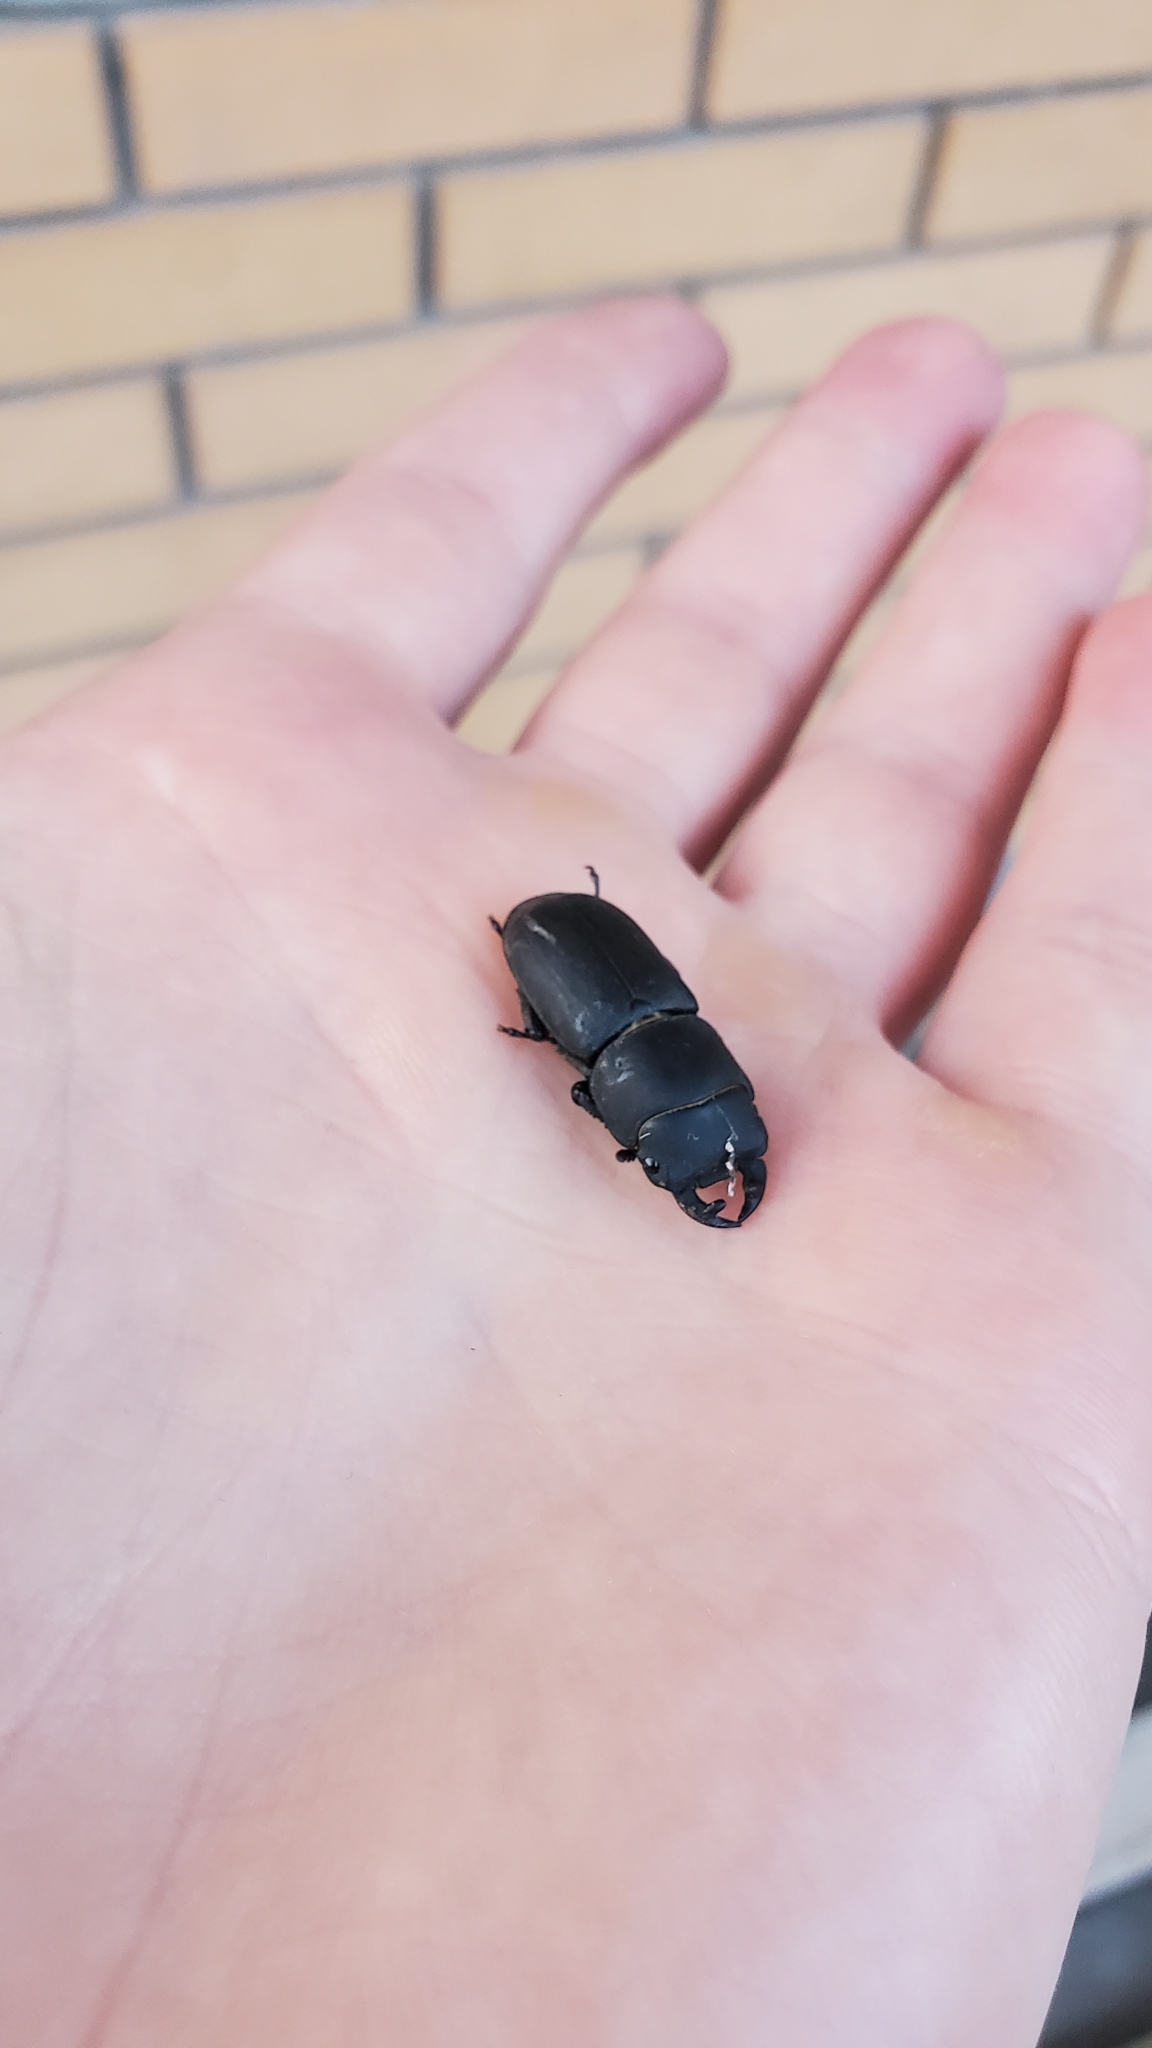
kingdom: Animalia
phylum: Arthropoda
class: Insecta
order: Coleoptera
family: Lucanidae
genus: Dorcus
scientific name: Dorcus parallelipipedus
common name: Lesser stag beetle
